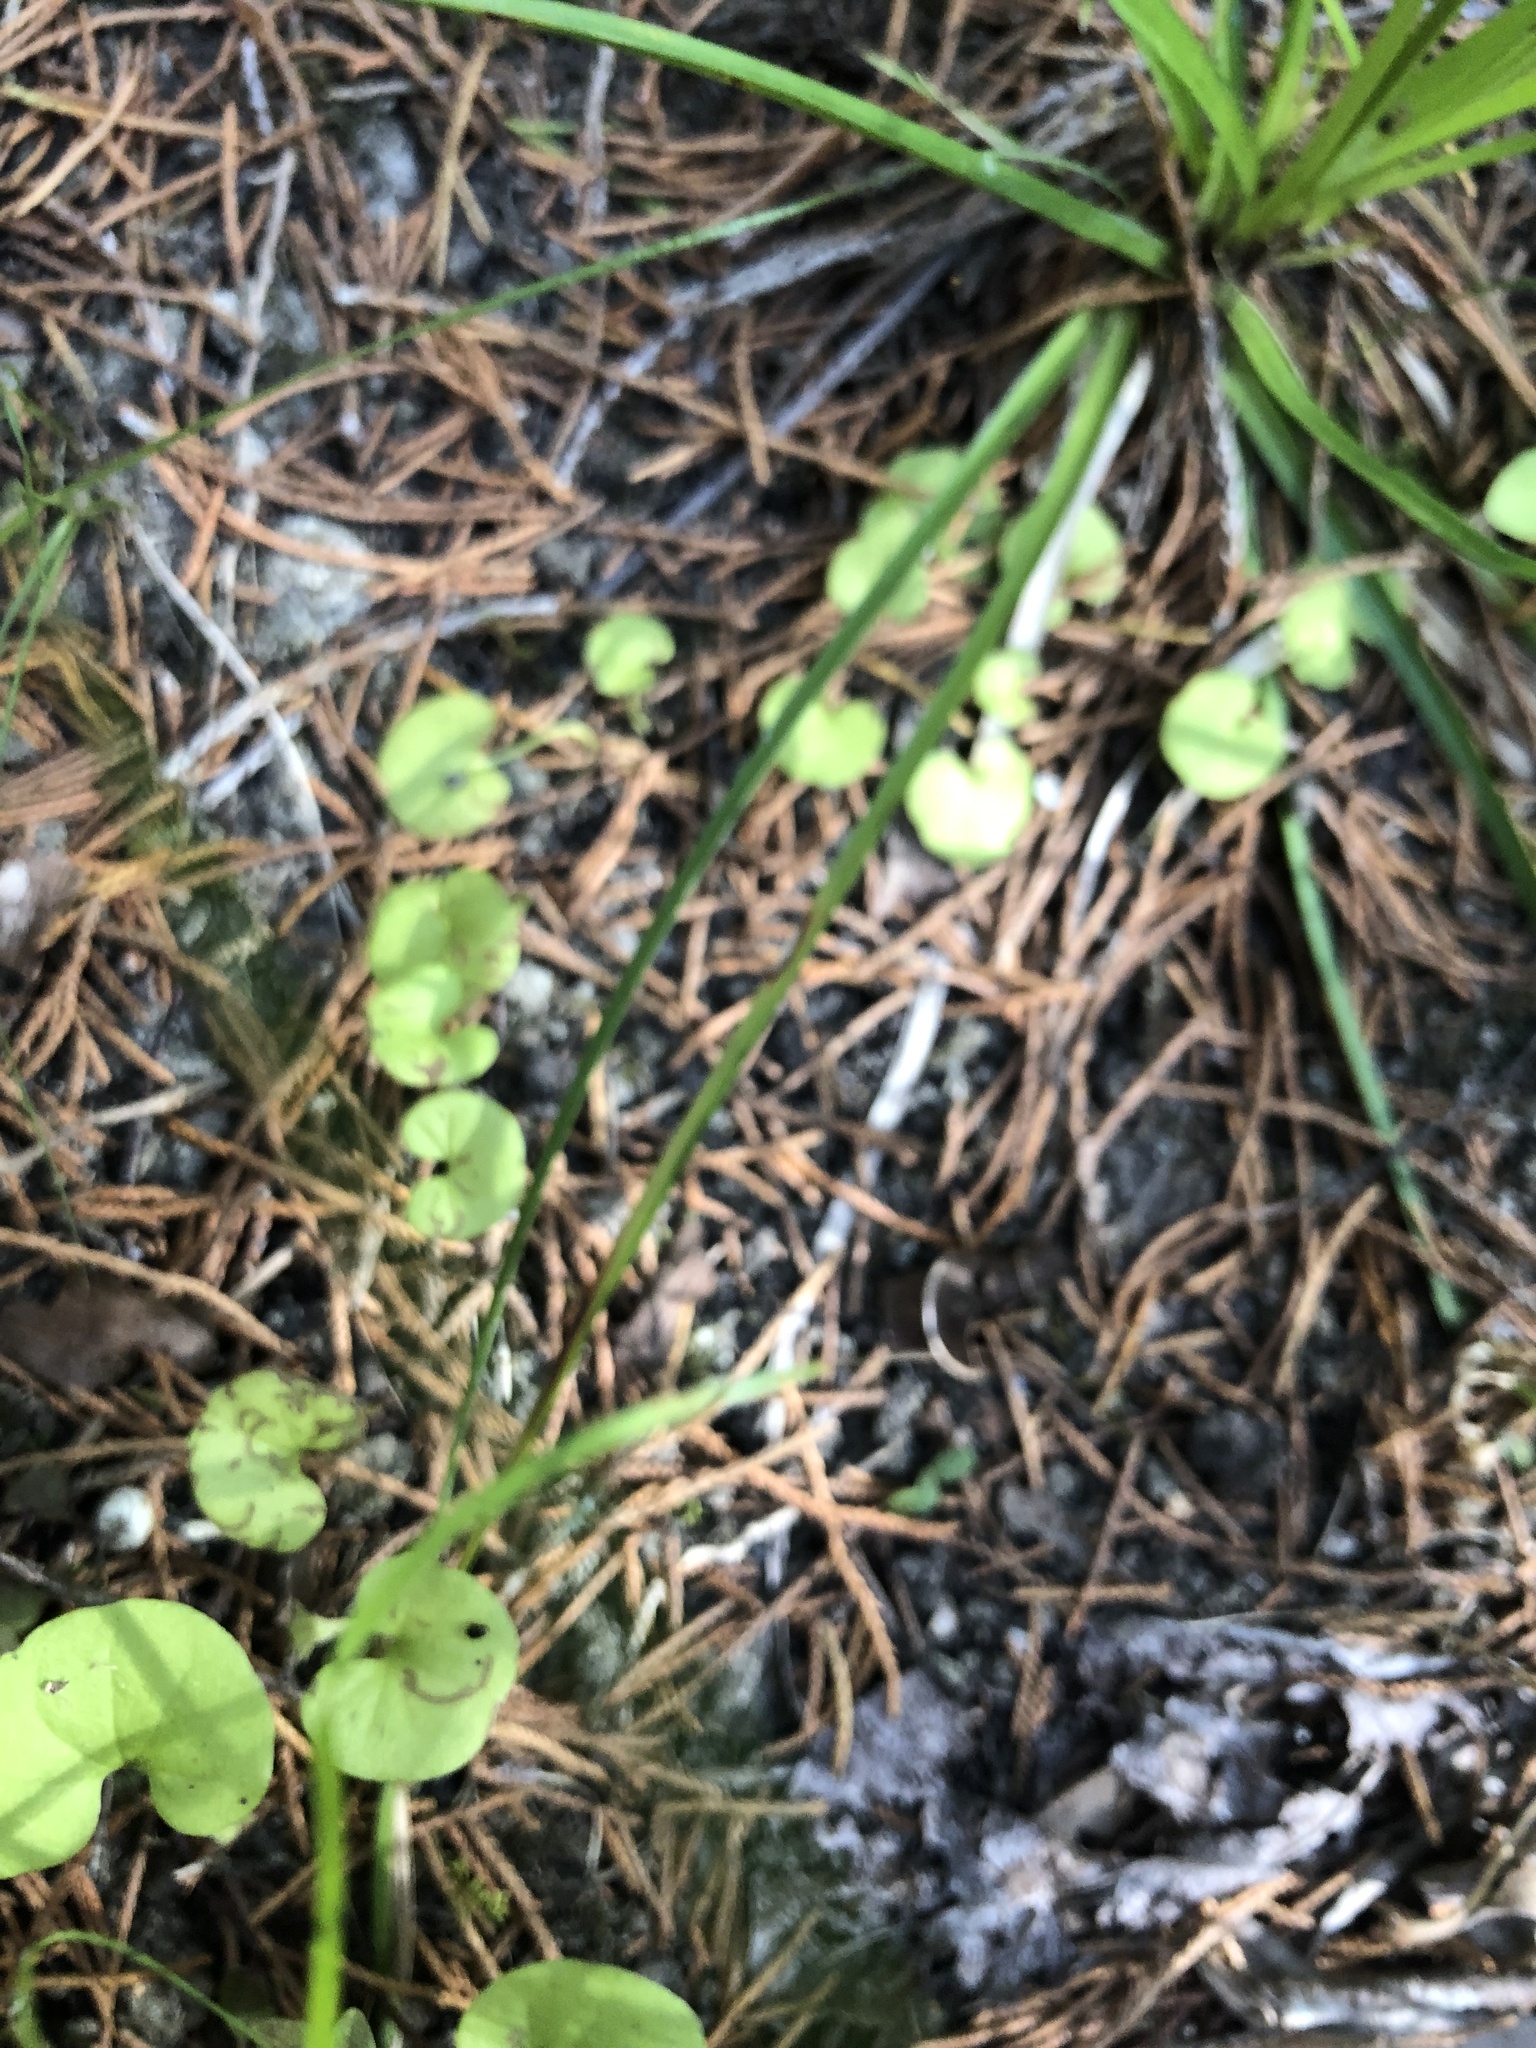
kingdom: Plantae
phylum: Tracheophyta
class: Magnoliopsida
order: Solanales
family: Convolvulaceae
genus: Dichondra
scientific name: Dichondra carolinensis
